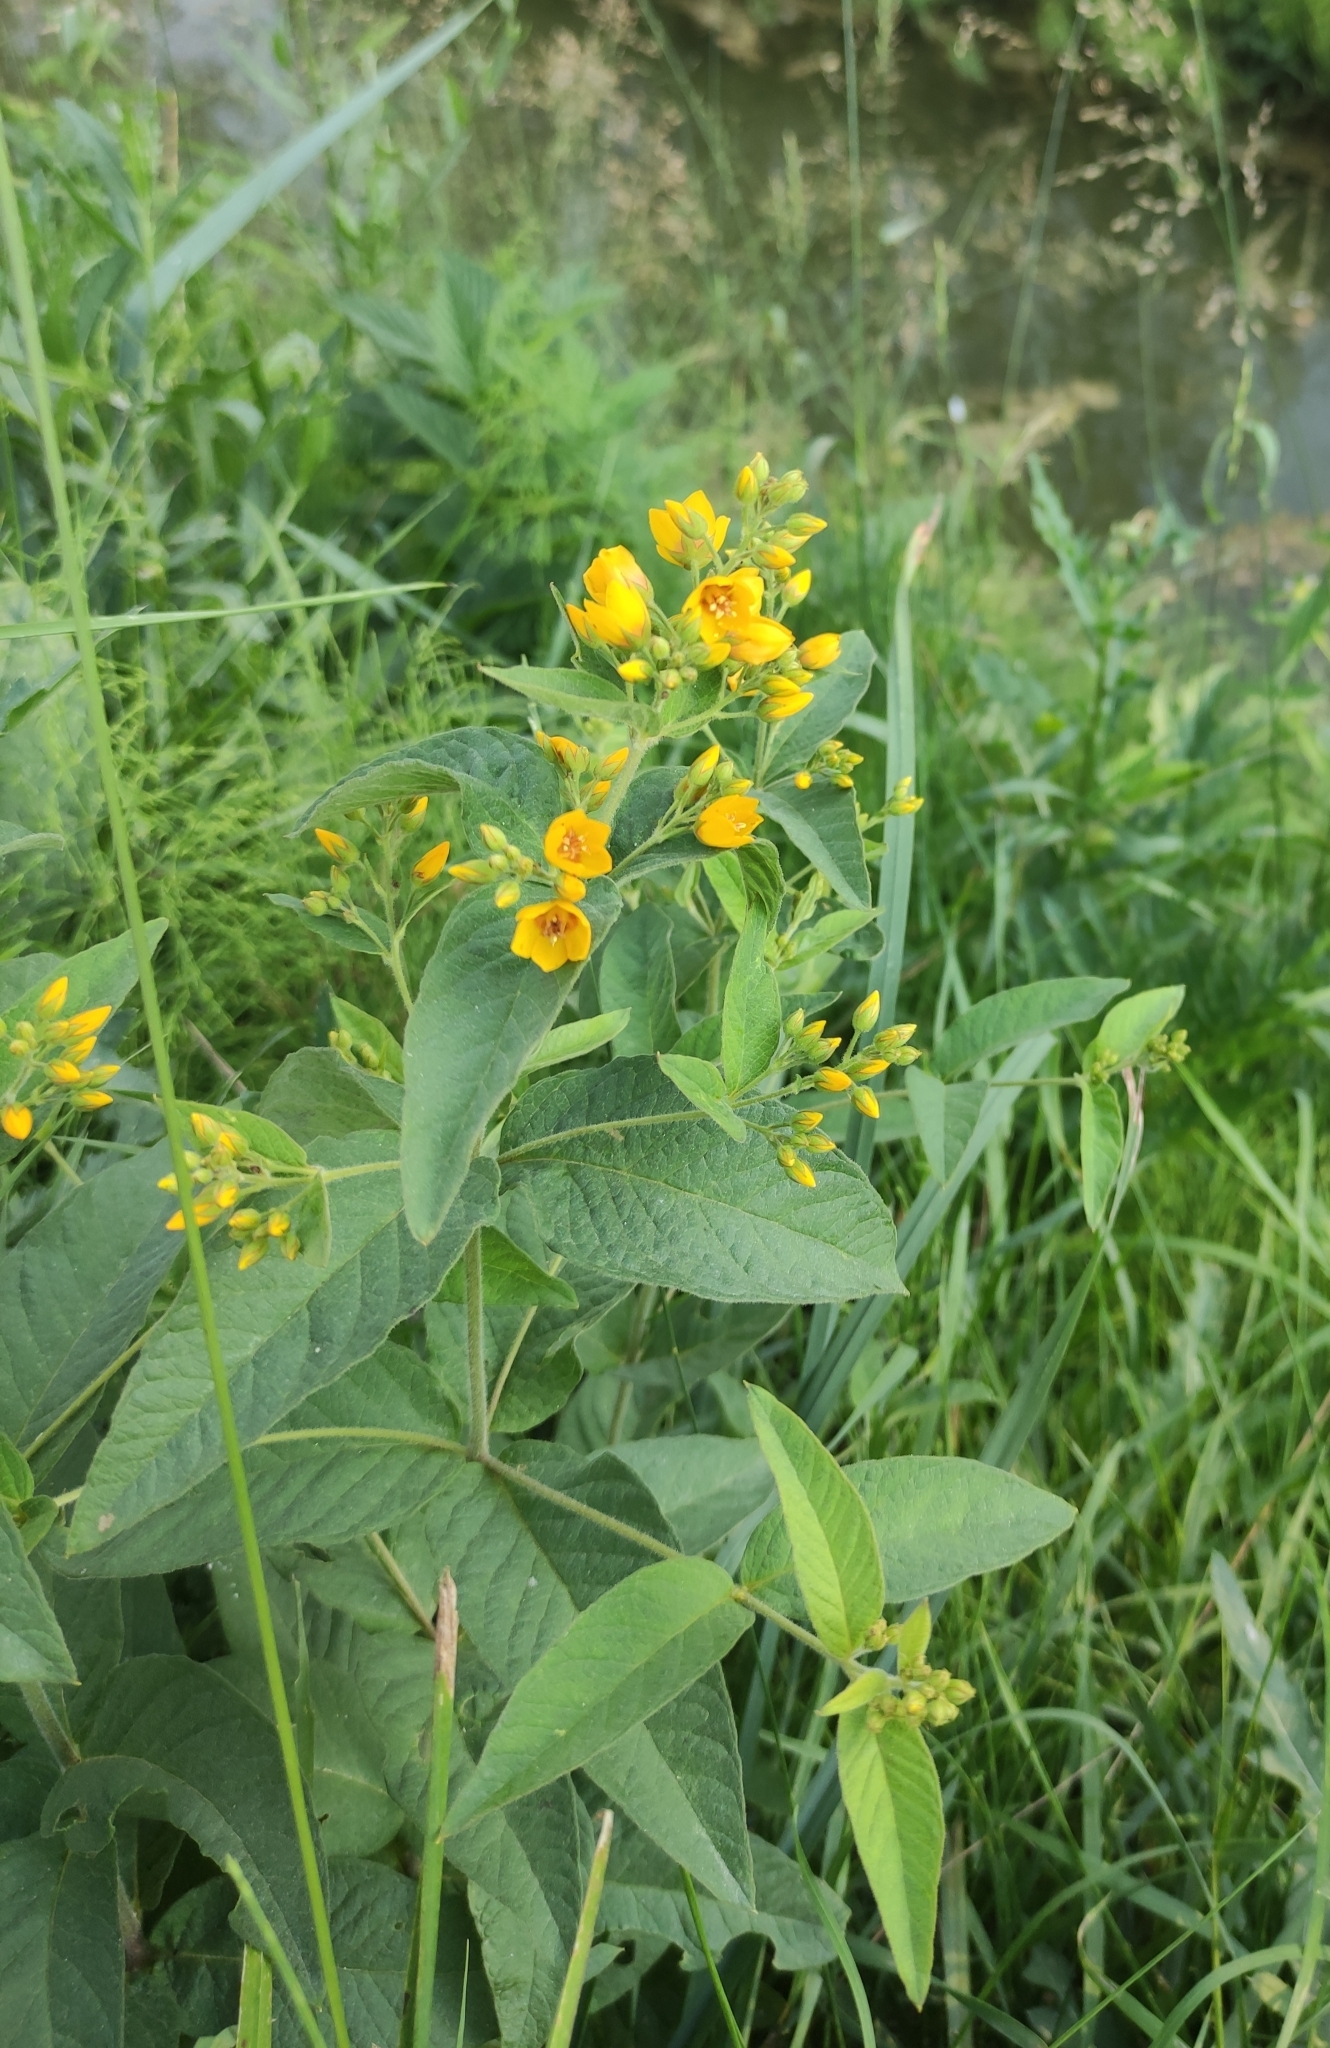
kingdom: Plantae
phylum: Tracheophyta
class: Magnoliopsida
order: Ericales
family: Primulaceae
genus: Lysimachia
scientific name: Lysimachia vulgaris
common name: Yellow loosestrife
